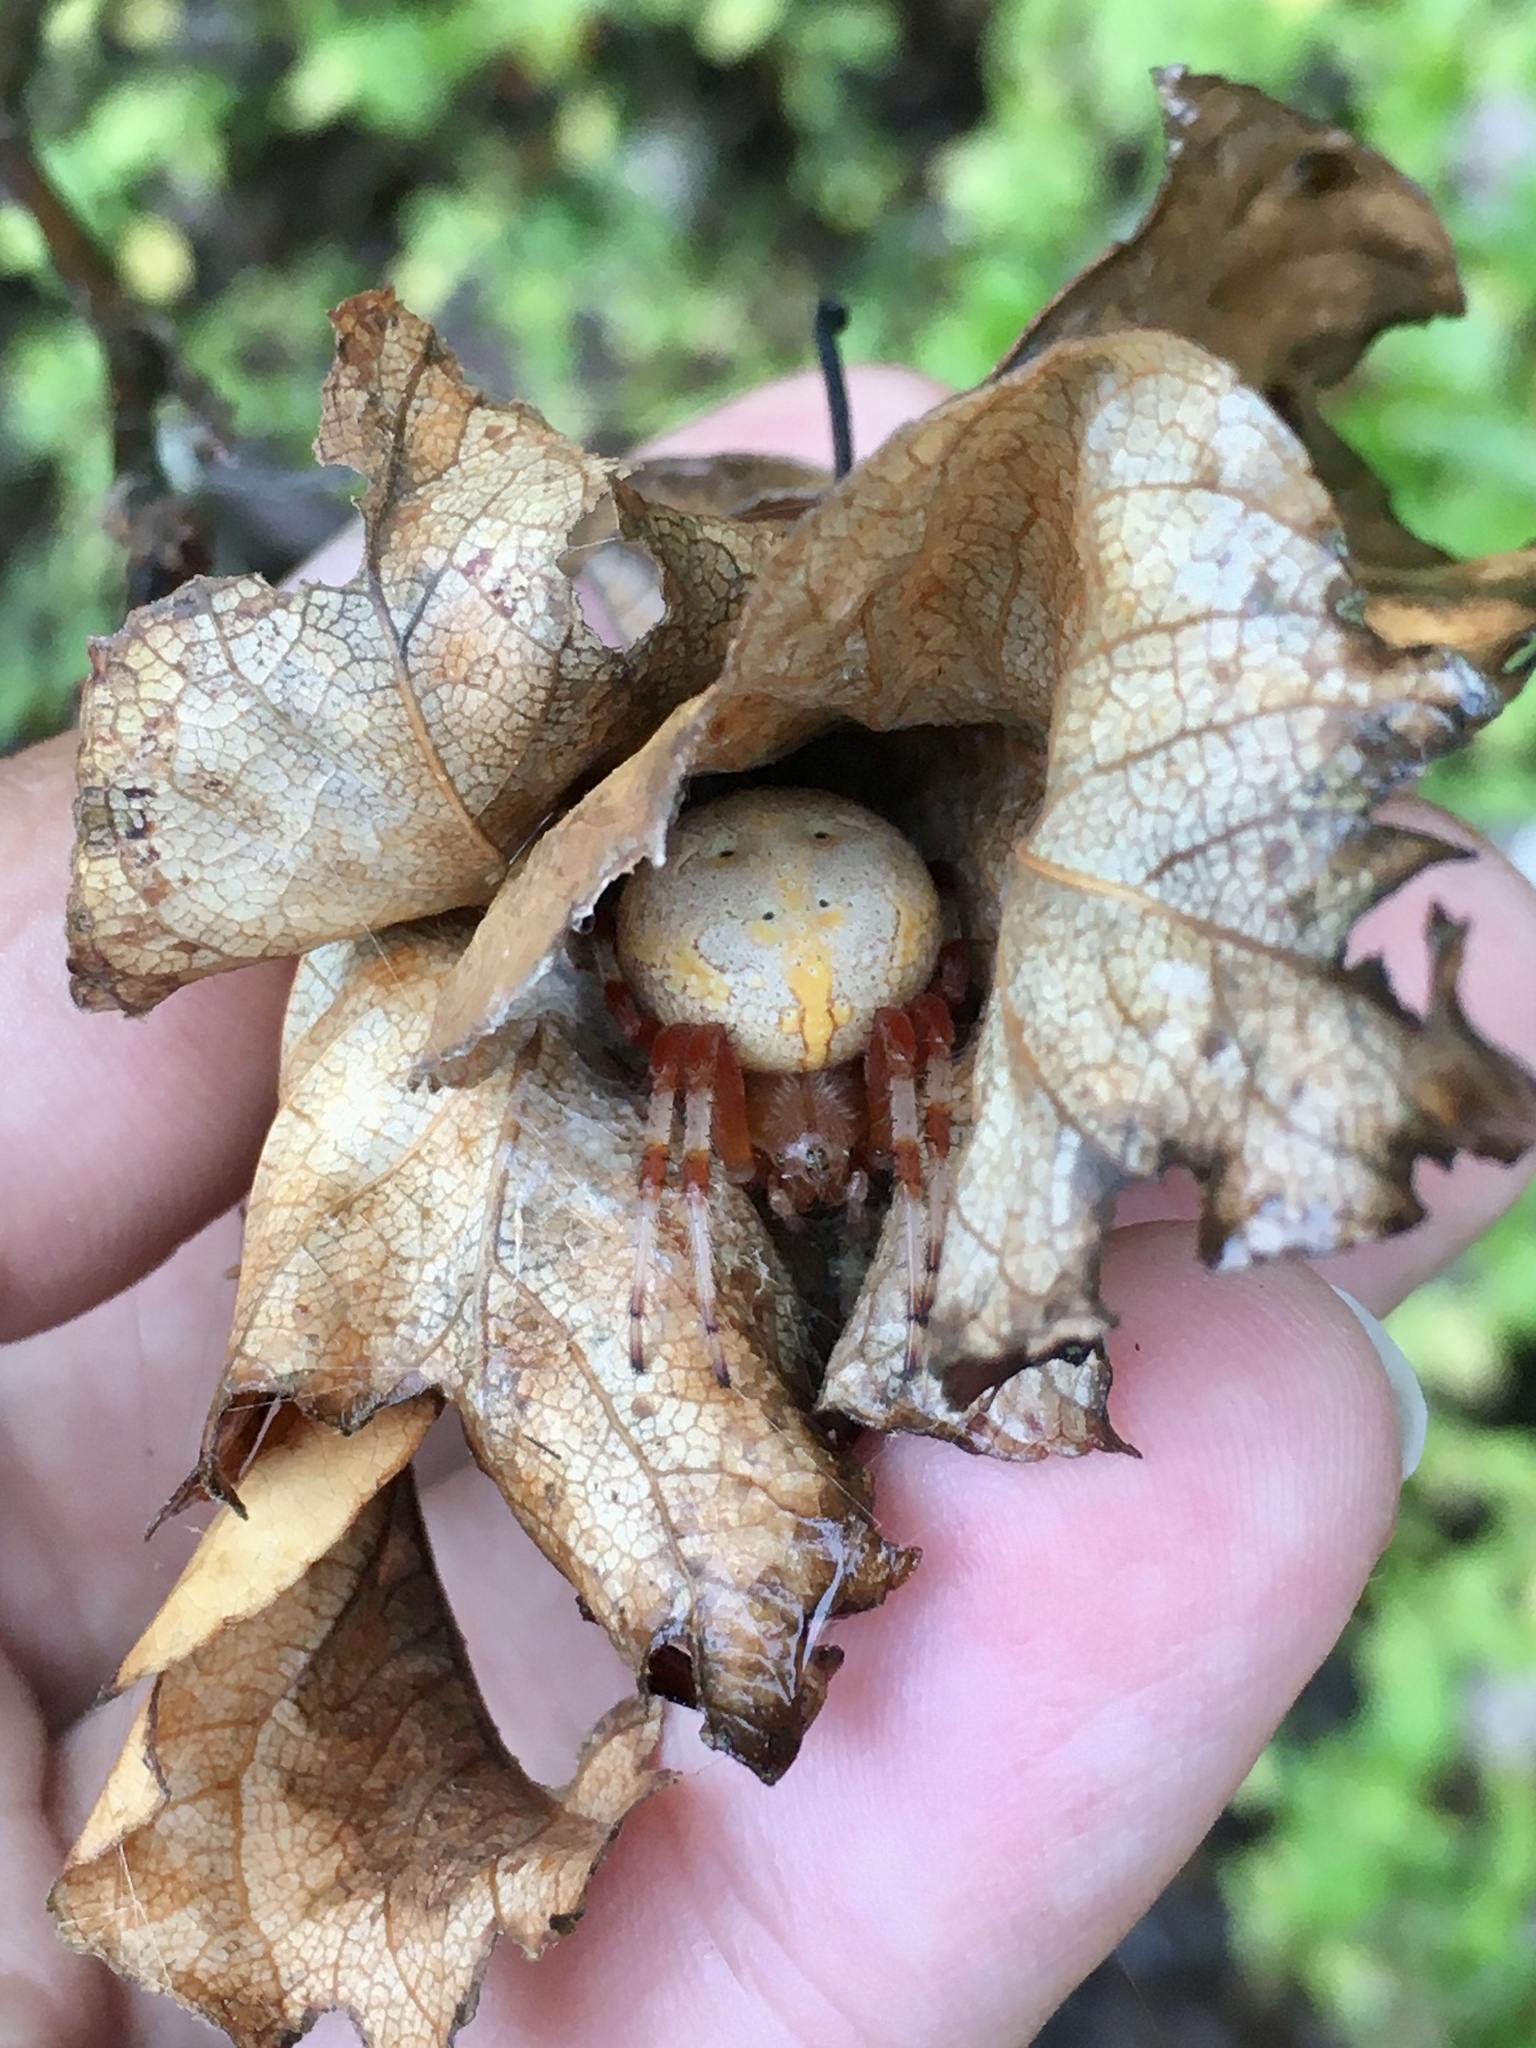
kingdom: Animalia
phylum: Arthropoda
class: Arachnida
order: Araneae
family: Araneidae
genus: Araneus
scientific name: Araneus marmoreus
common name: Marbled orbweaver
